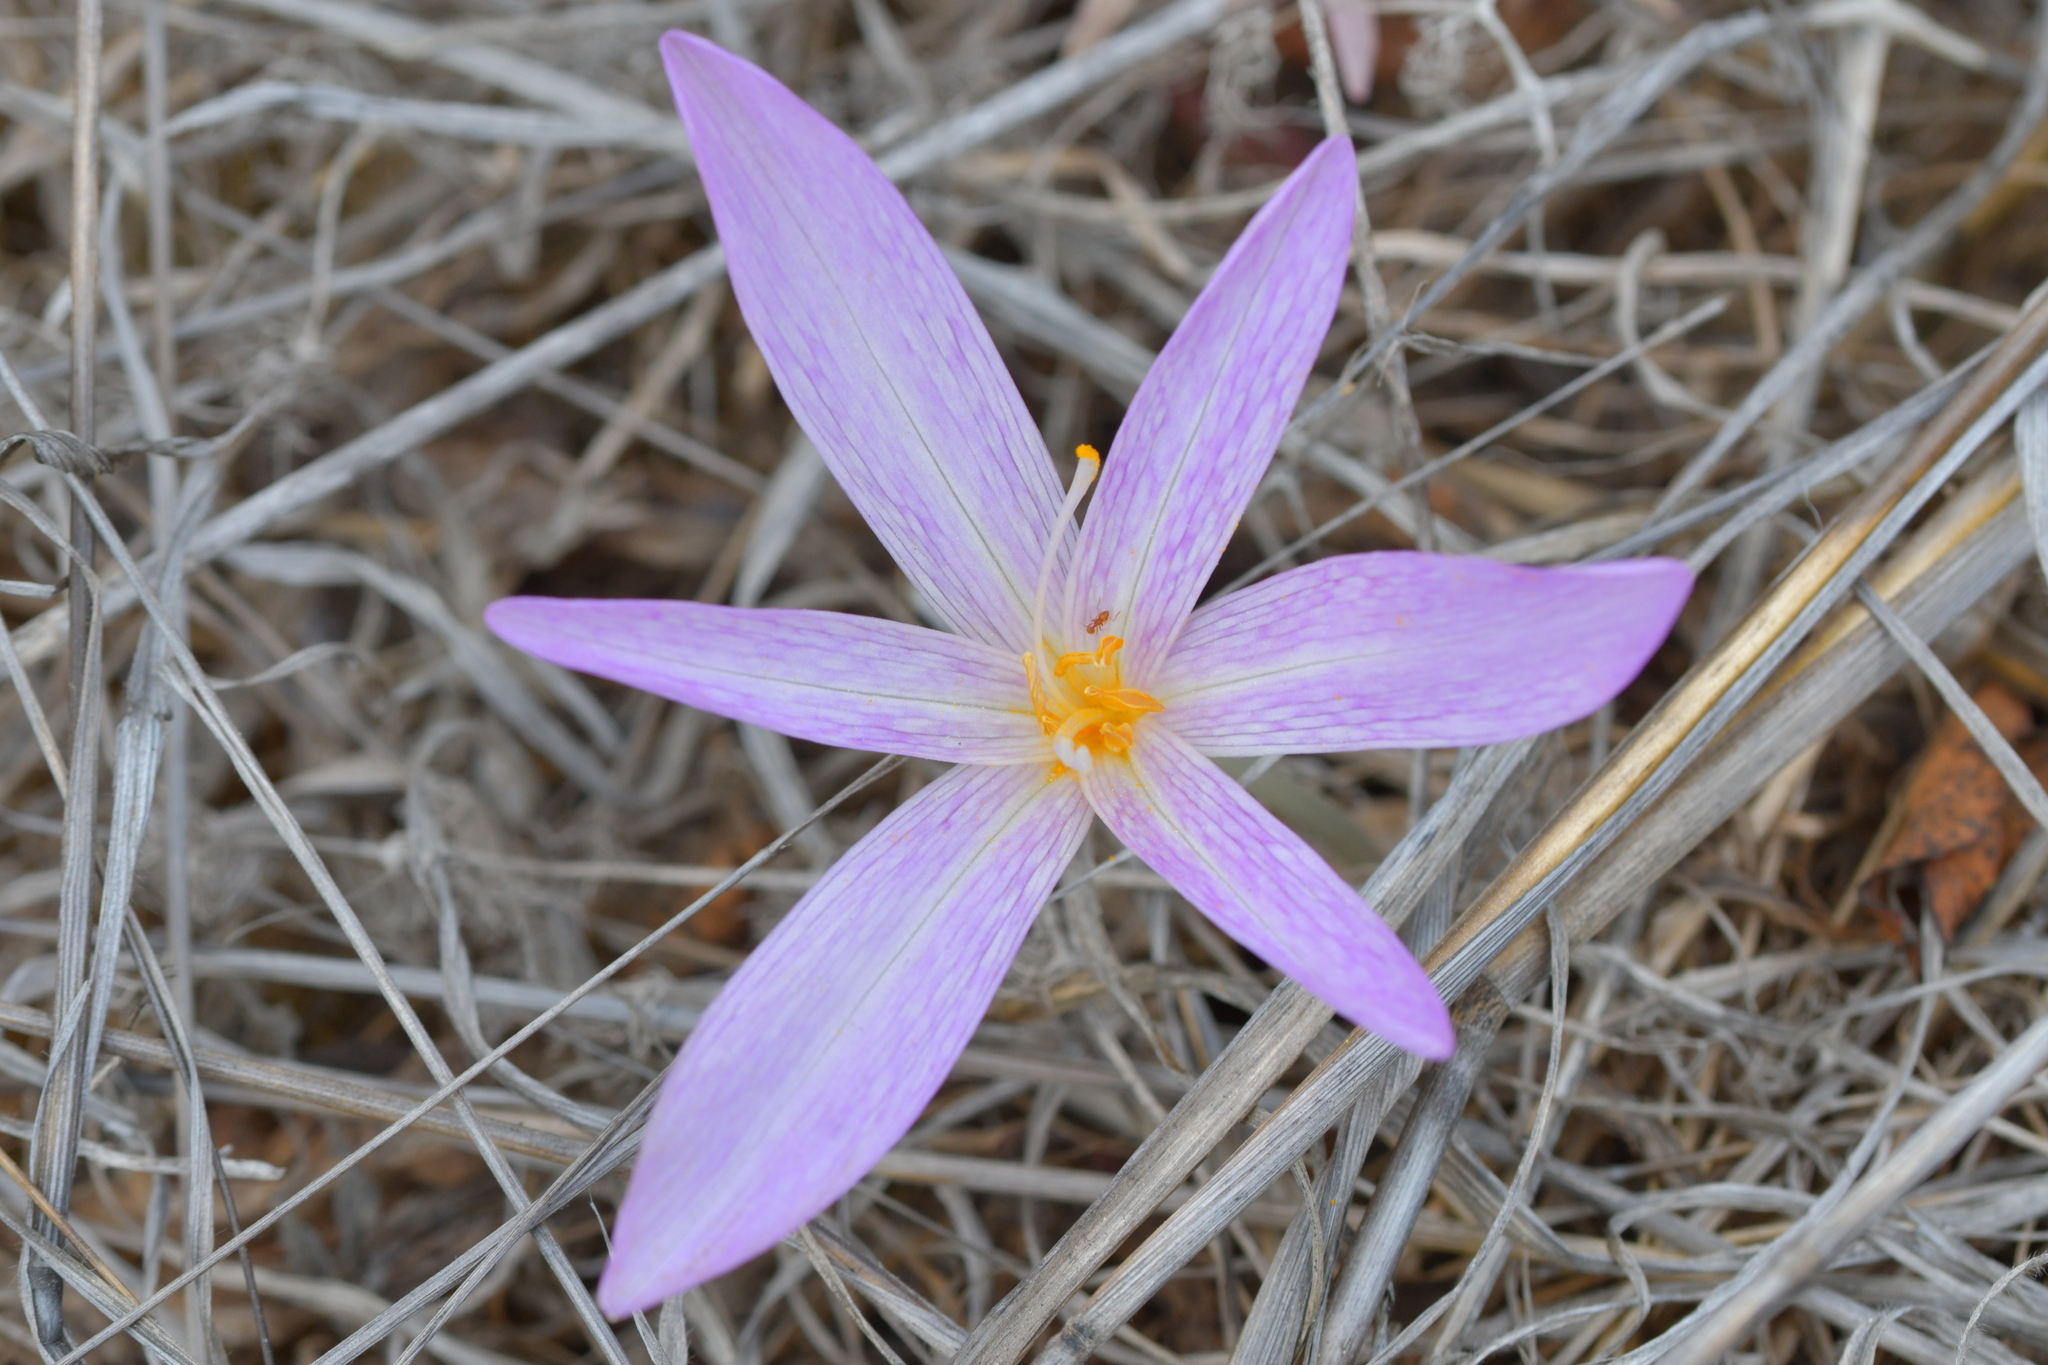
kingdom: Plantae
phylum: Tracheophyta
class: Liliopsida
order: Liliales
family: Colchicaceae
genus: Colchicum
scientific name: Colchicum lusitanum
